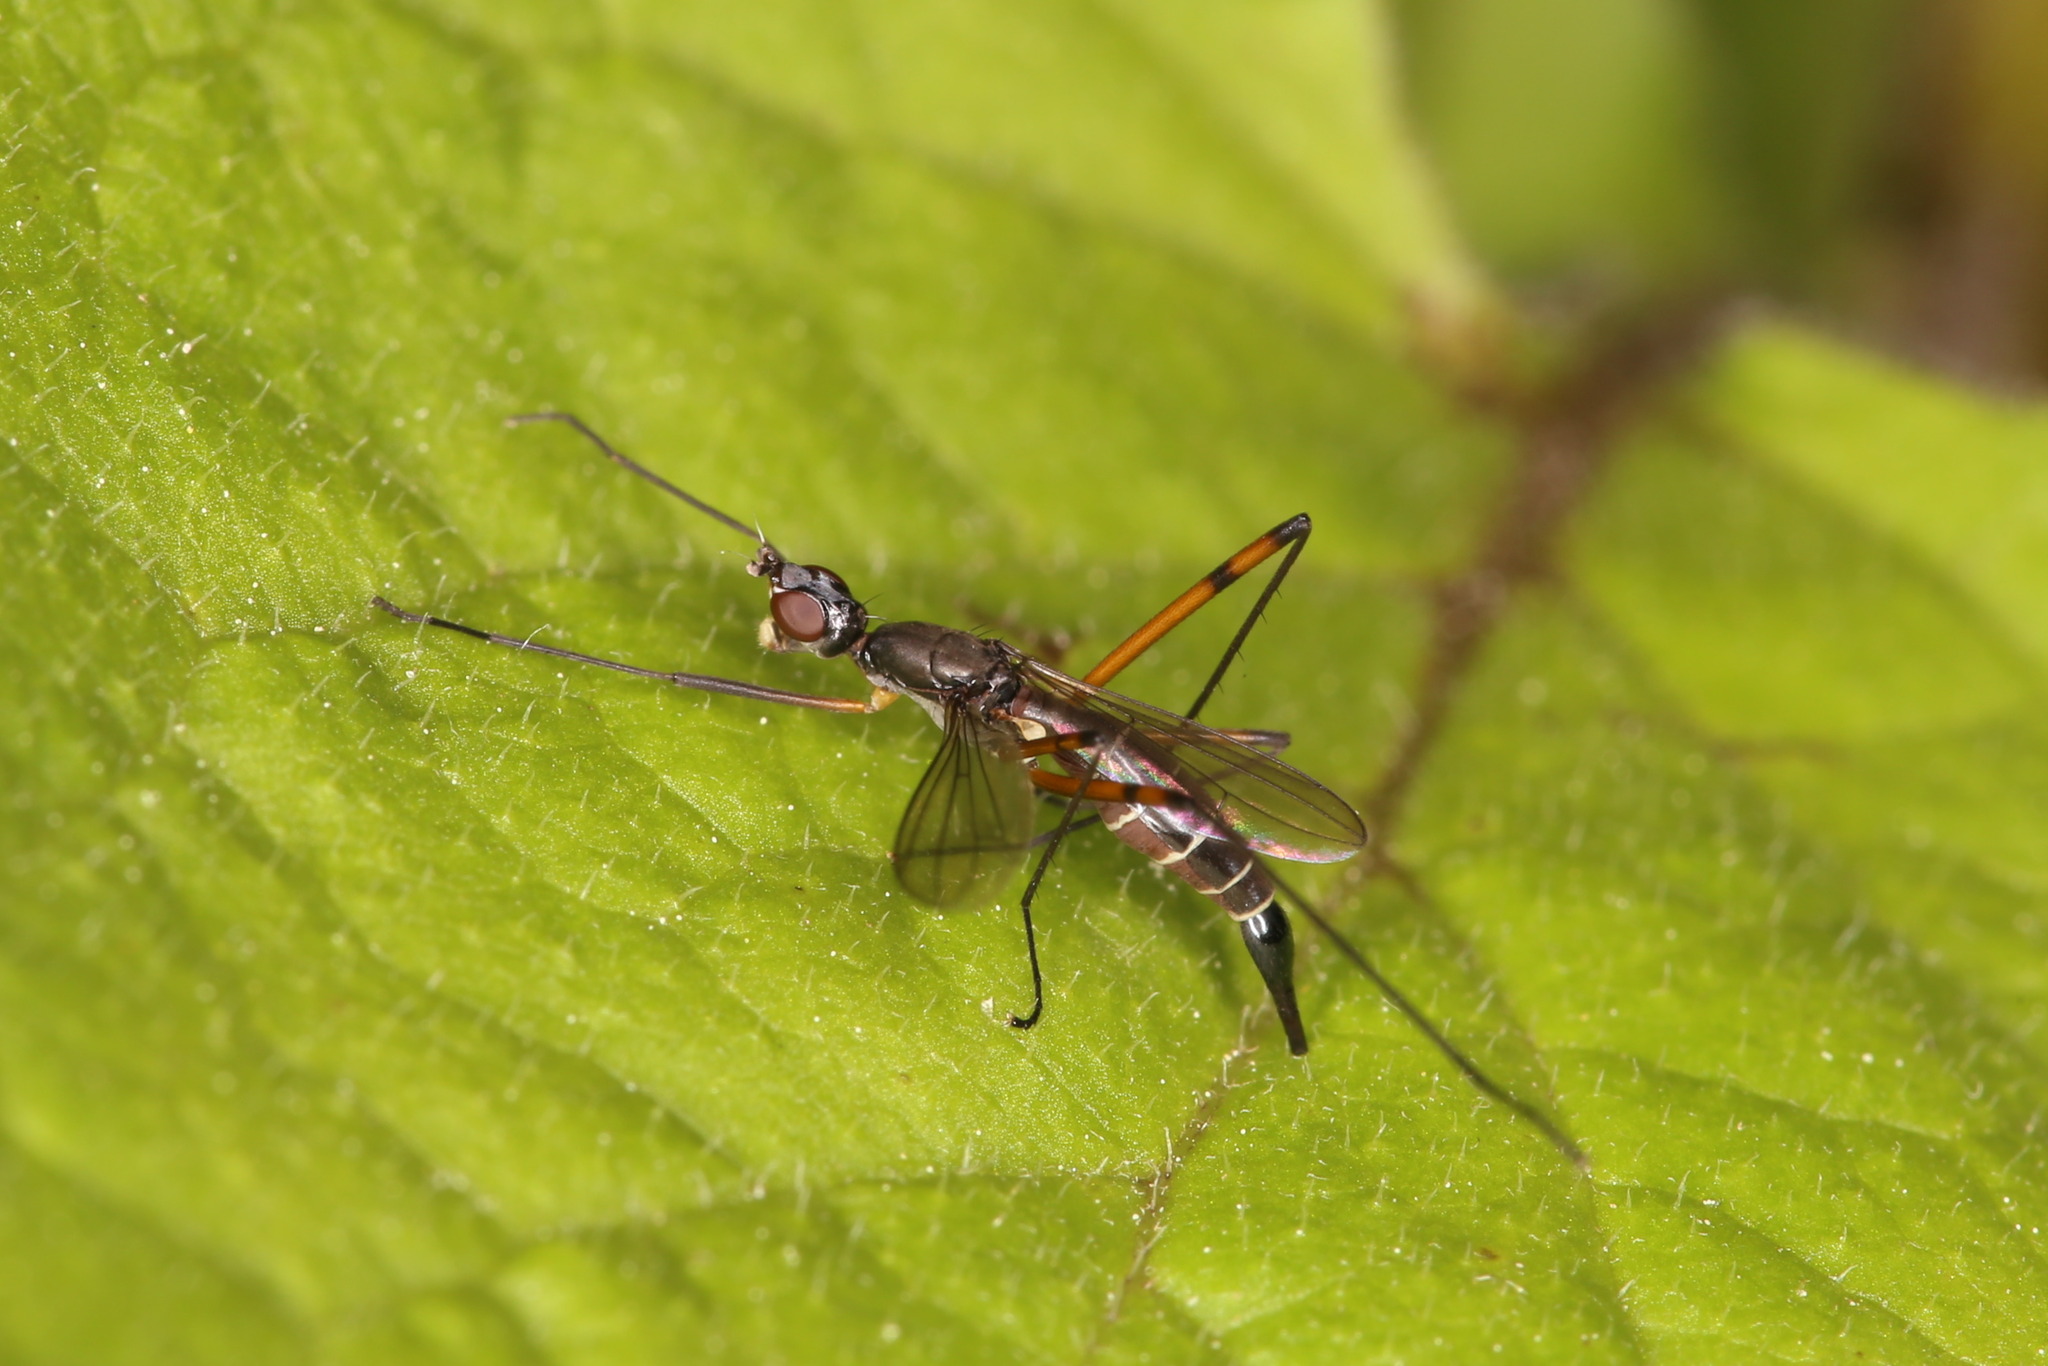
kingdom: Animalia
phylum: Arthropoda
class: Insecta
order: Diptera
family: Micropezidae
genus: Micropeza
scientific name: Micropeza corrigiolata
